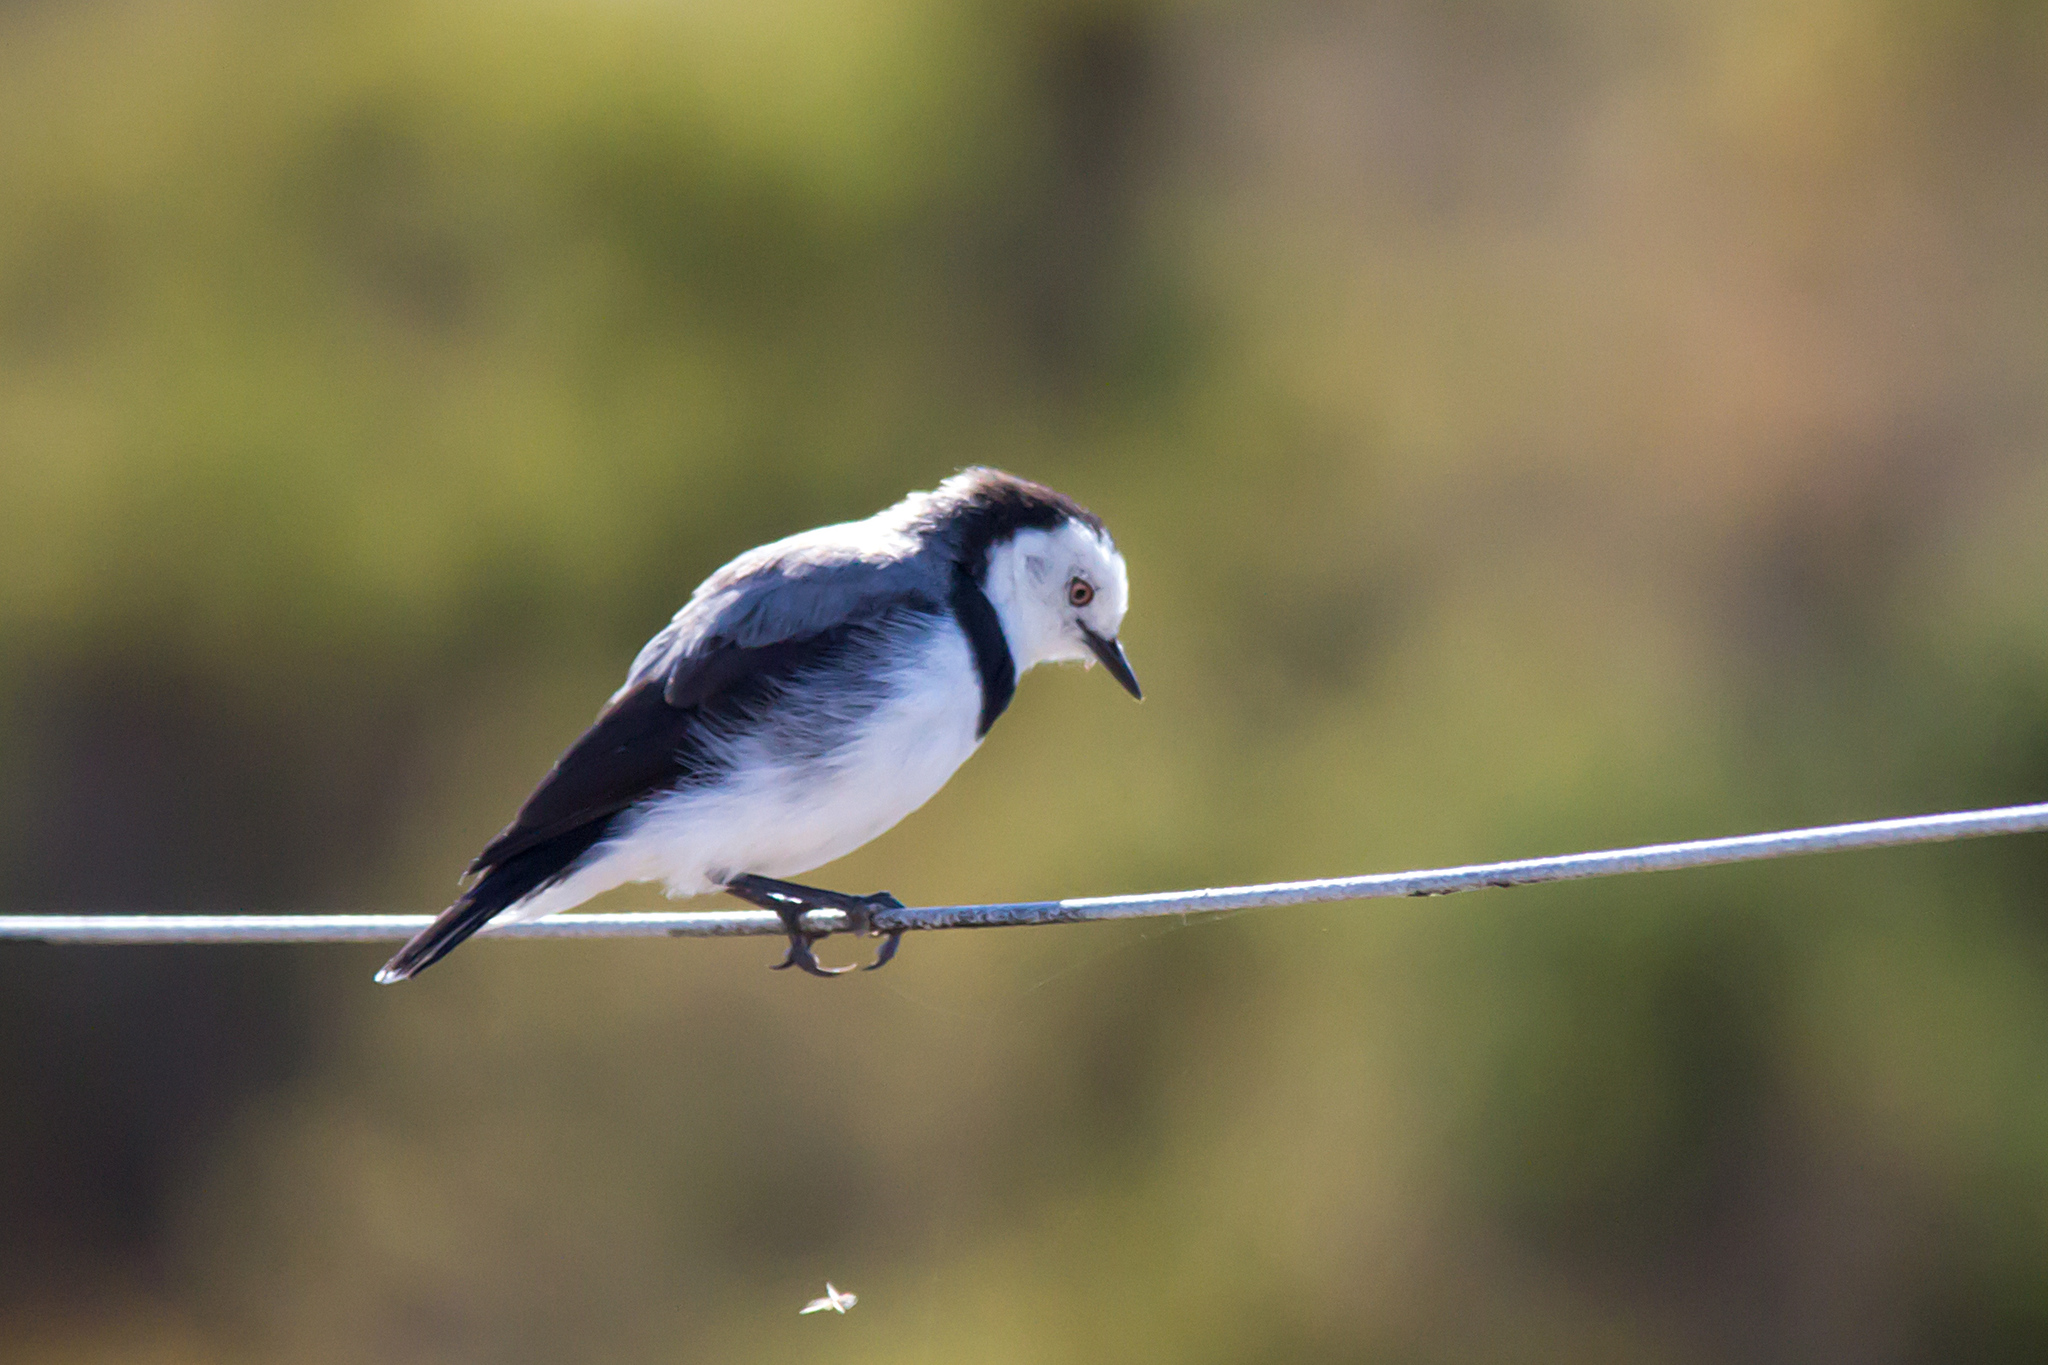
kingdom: Animalia
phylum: Chordata
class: Aves
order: Passeriformes
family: Meliphagidae
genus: Epthianura
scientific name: Epthianura albifrons
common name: White-fronted chat
